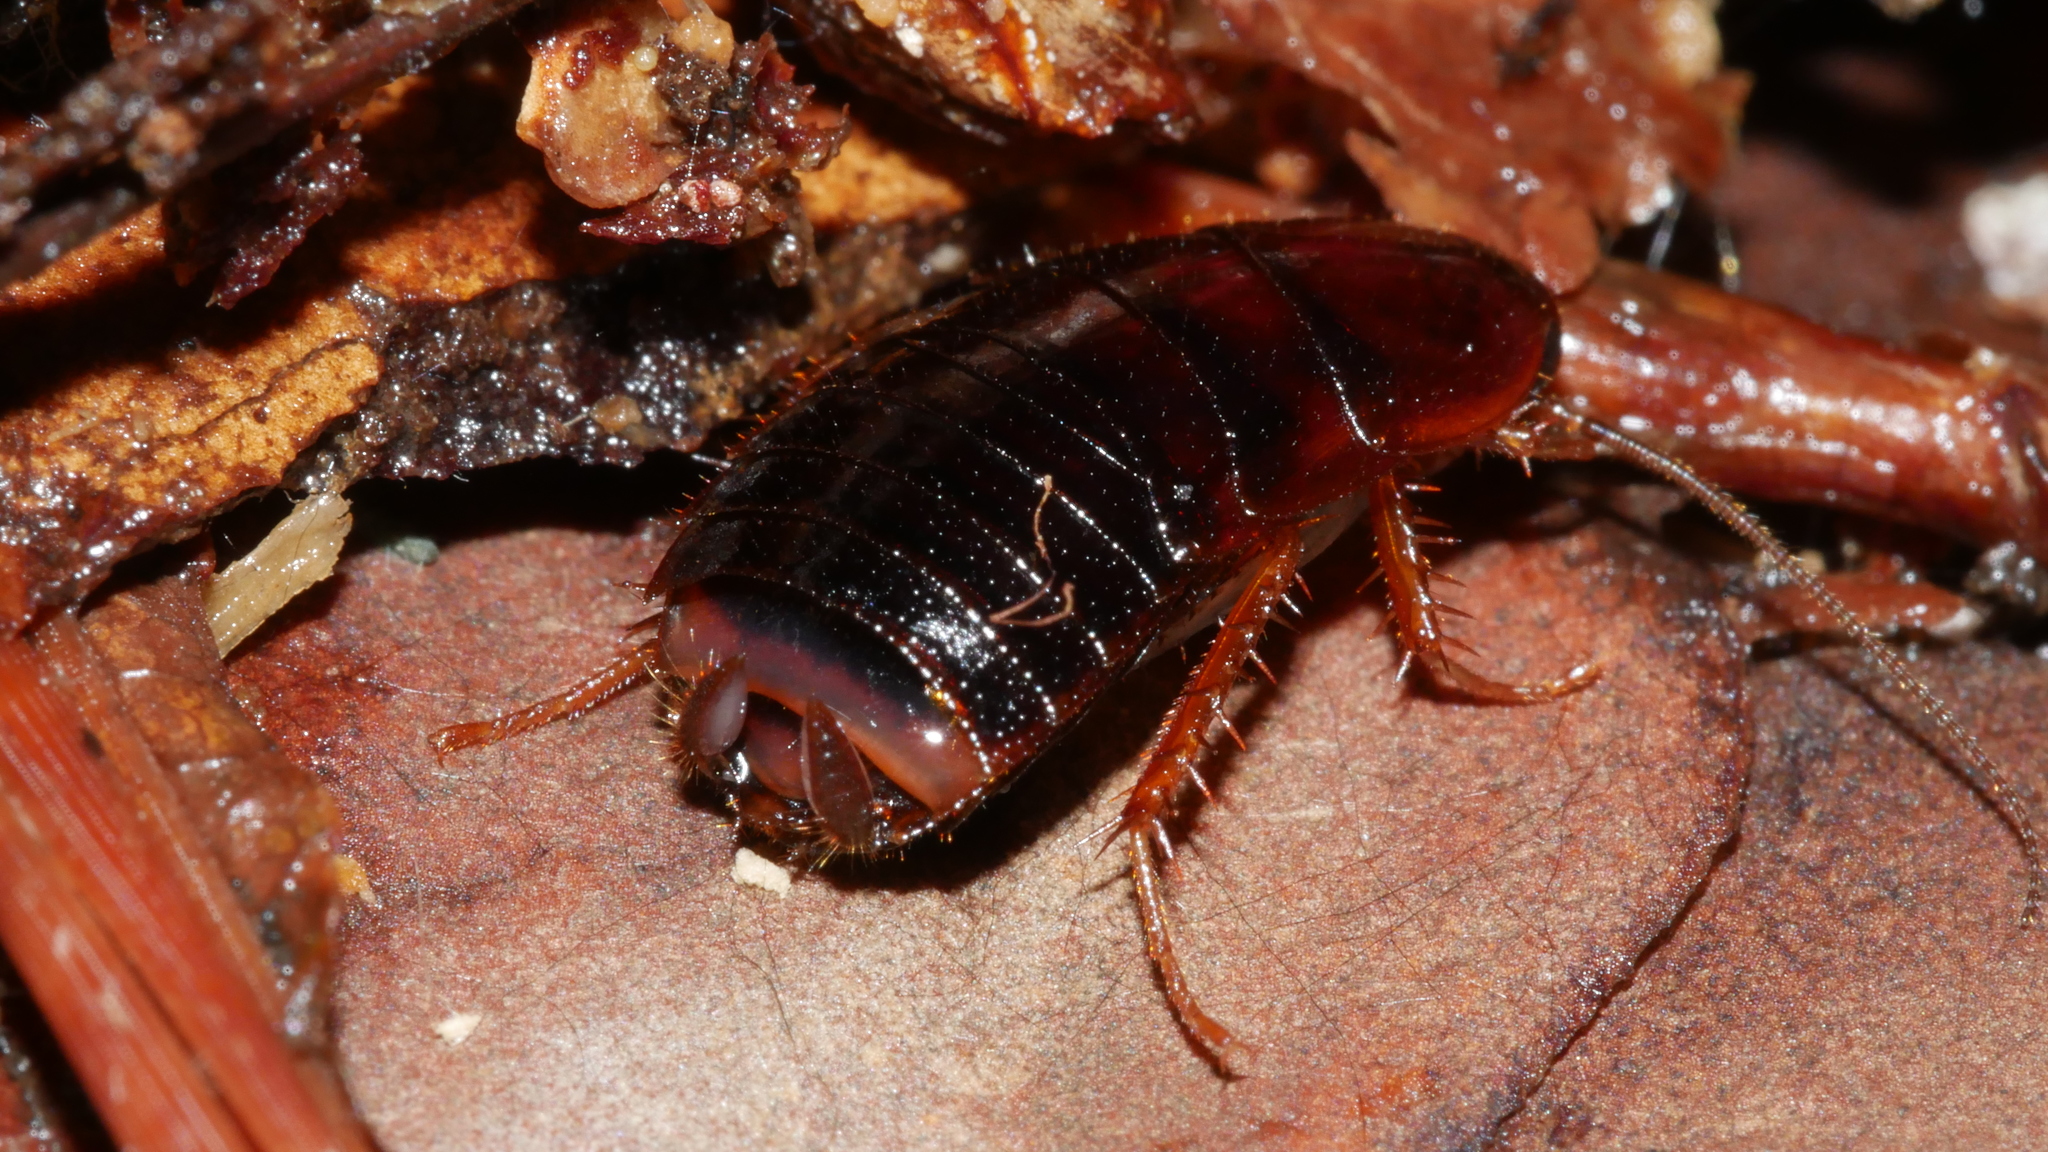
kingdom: Animalia
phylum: Arthropoda
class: Insecta
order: Blattodea
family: Ectobiidae
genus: Parcoblatta
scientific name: Parcoblatta uhleriana
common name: Uhler's wood cockroach
